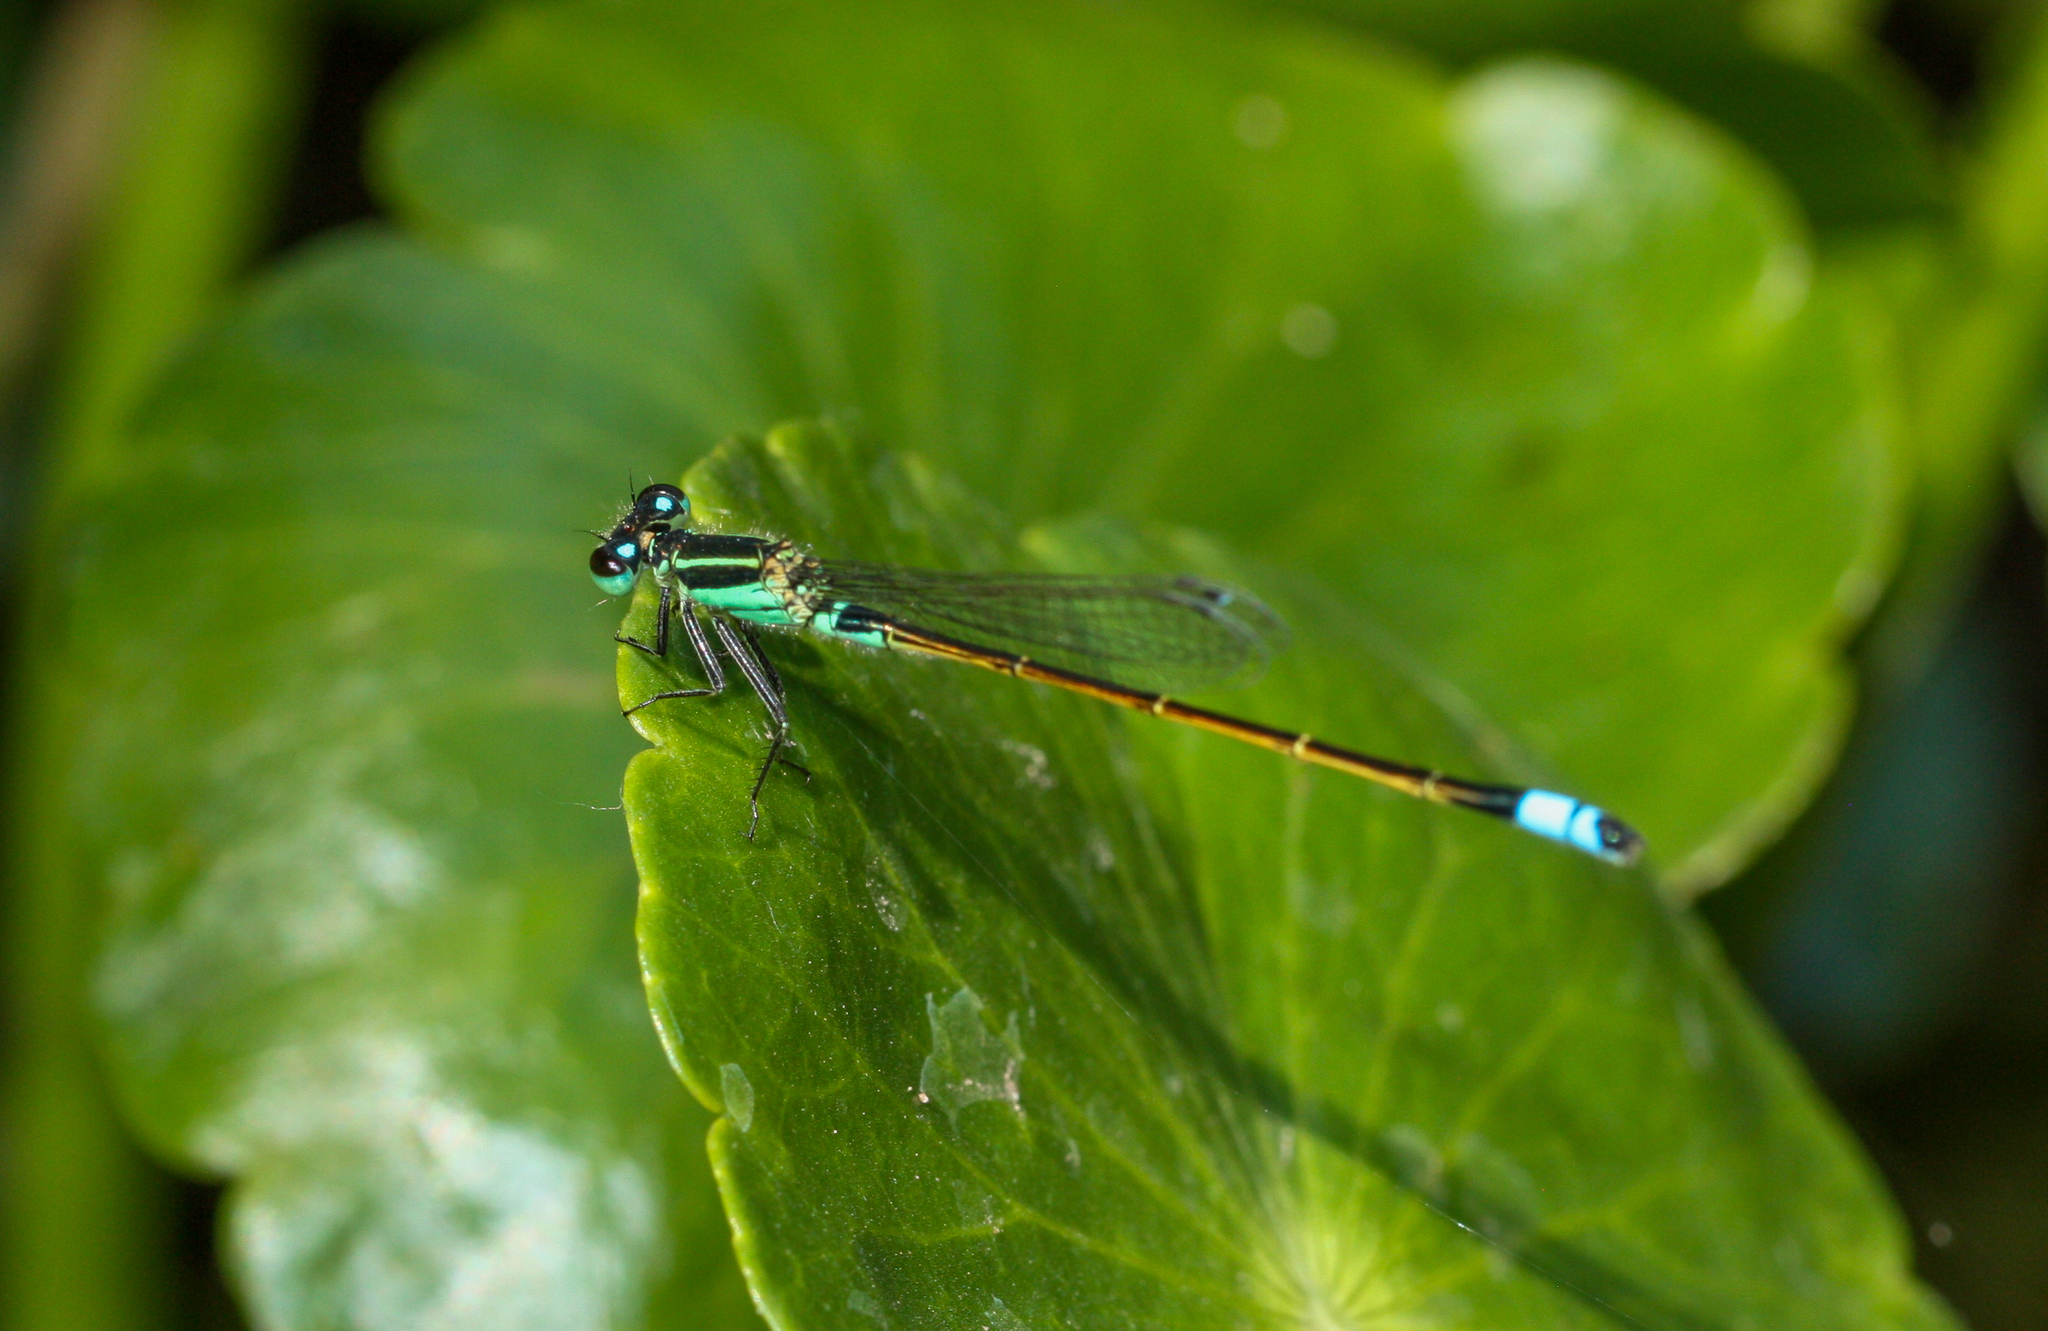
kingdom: Animalia
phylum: Arthropoda
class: Insecta
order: Odonata
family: Coenagrionidae
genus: Ischnura
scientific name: Ischnura ramburii
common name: Rambur's forktail
